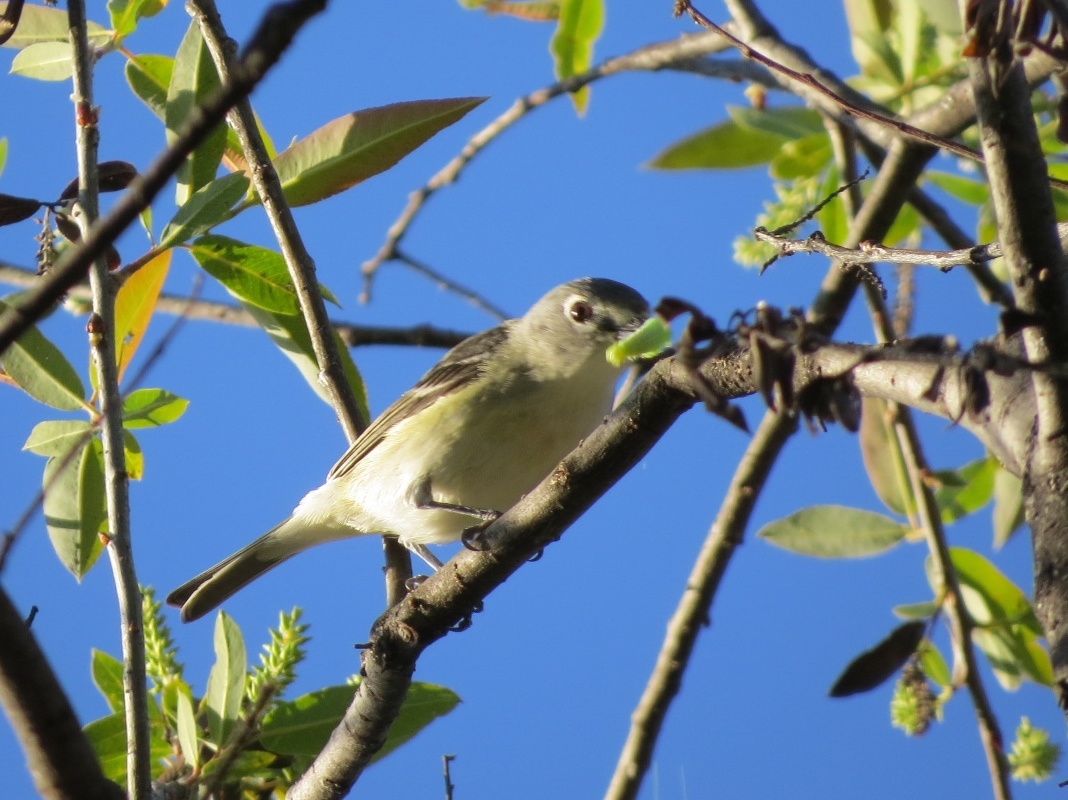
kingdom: Animalia
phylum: Chordata
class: Aves
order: Passeriformes
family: Vireonidae
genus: Vireo
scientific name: Vireo cassinii
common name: Cassin's vireo
